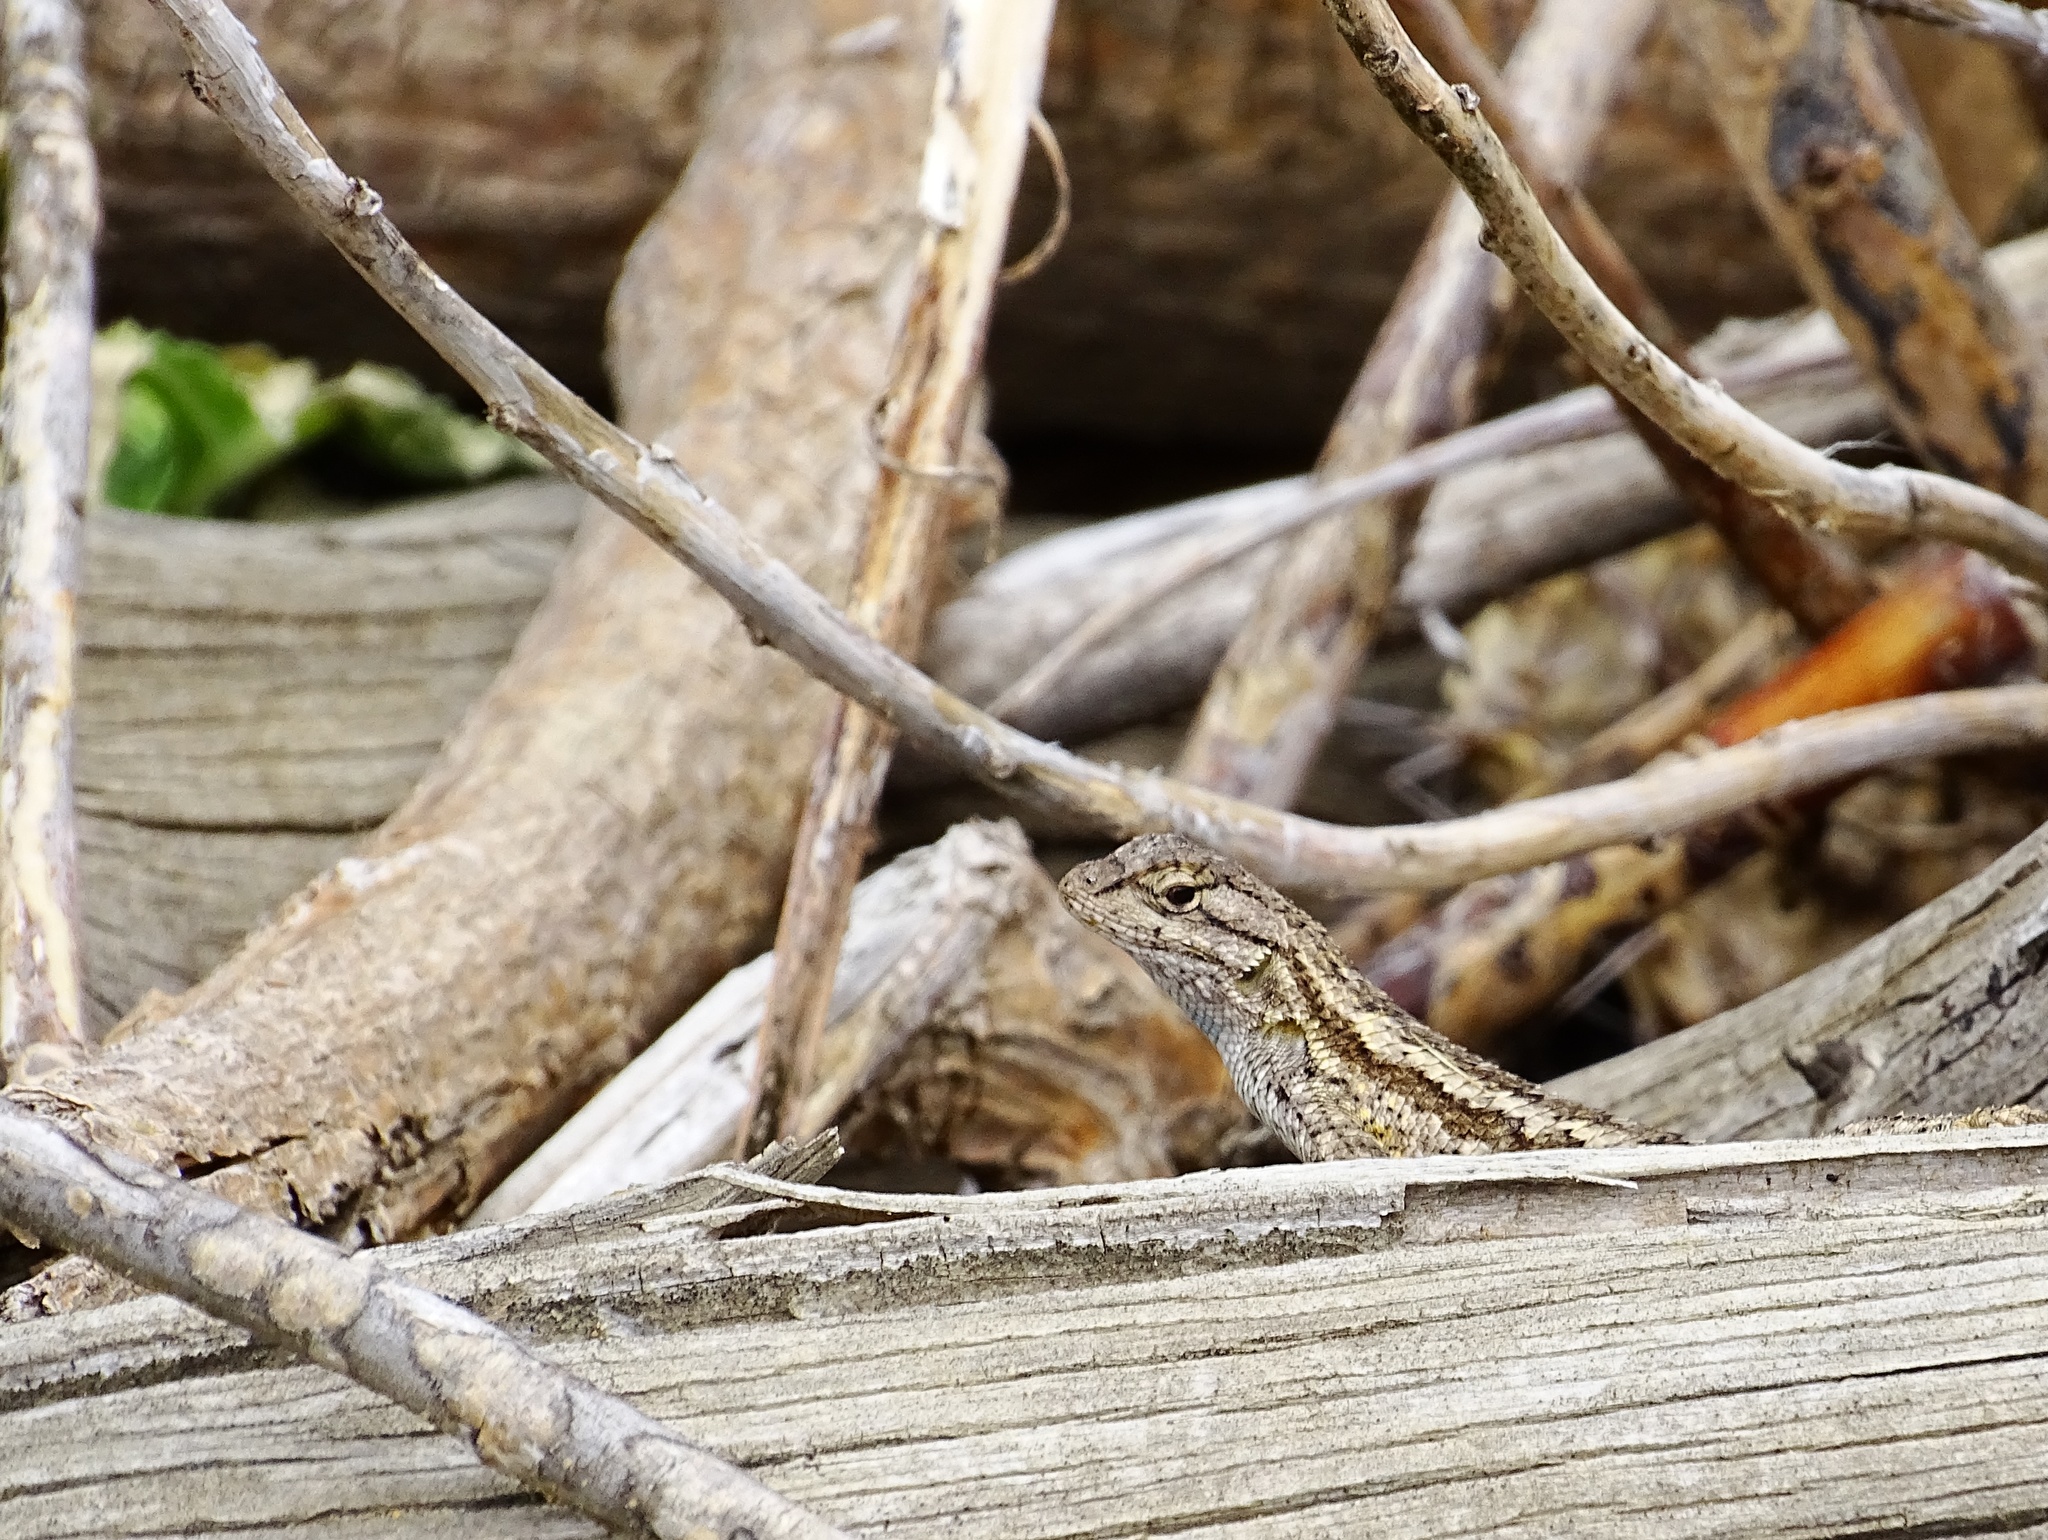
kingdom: Animalia
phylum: Chordata
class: Squamata
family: Phrynosomatidae
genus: Sceloporus
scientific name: Sceloporus occidentalis
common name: Western fence lizard
